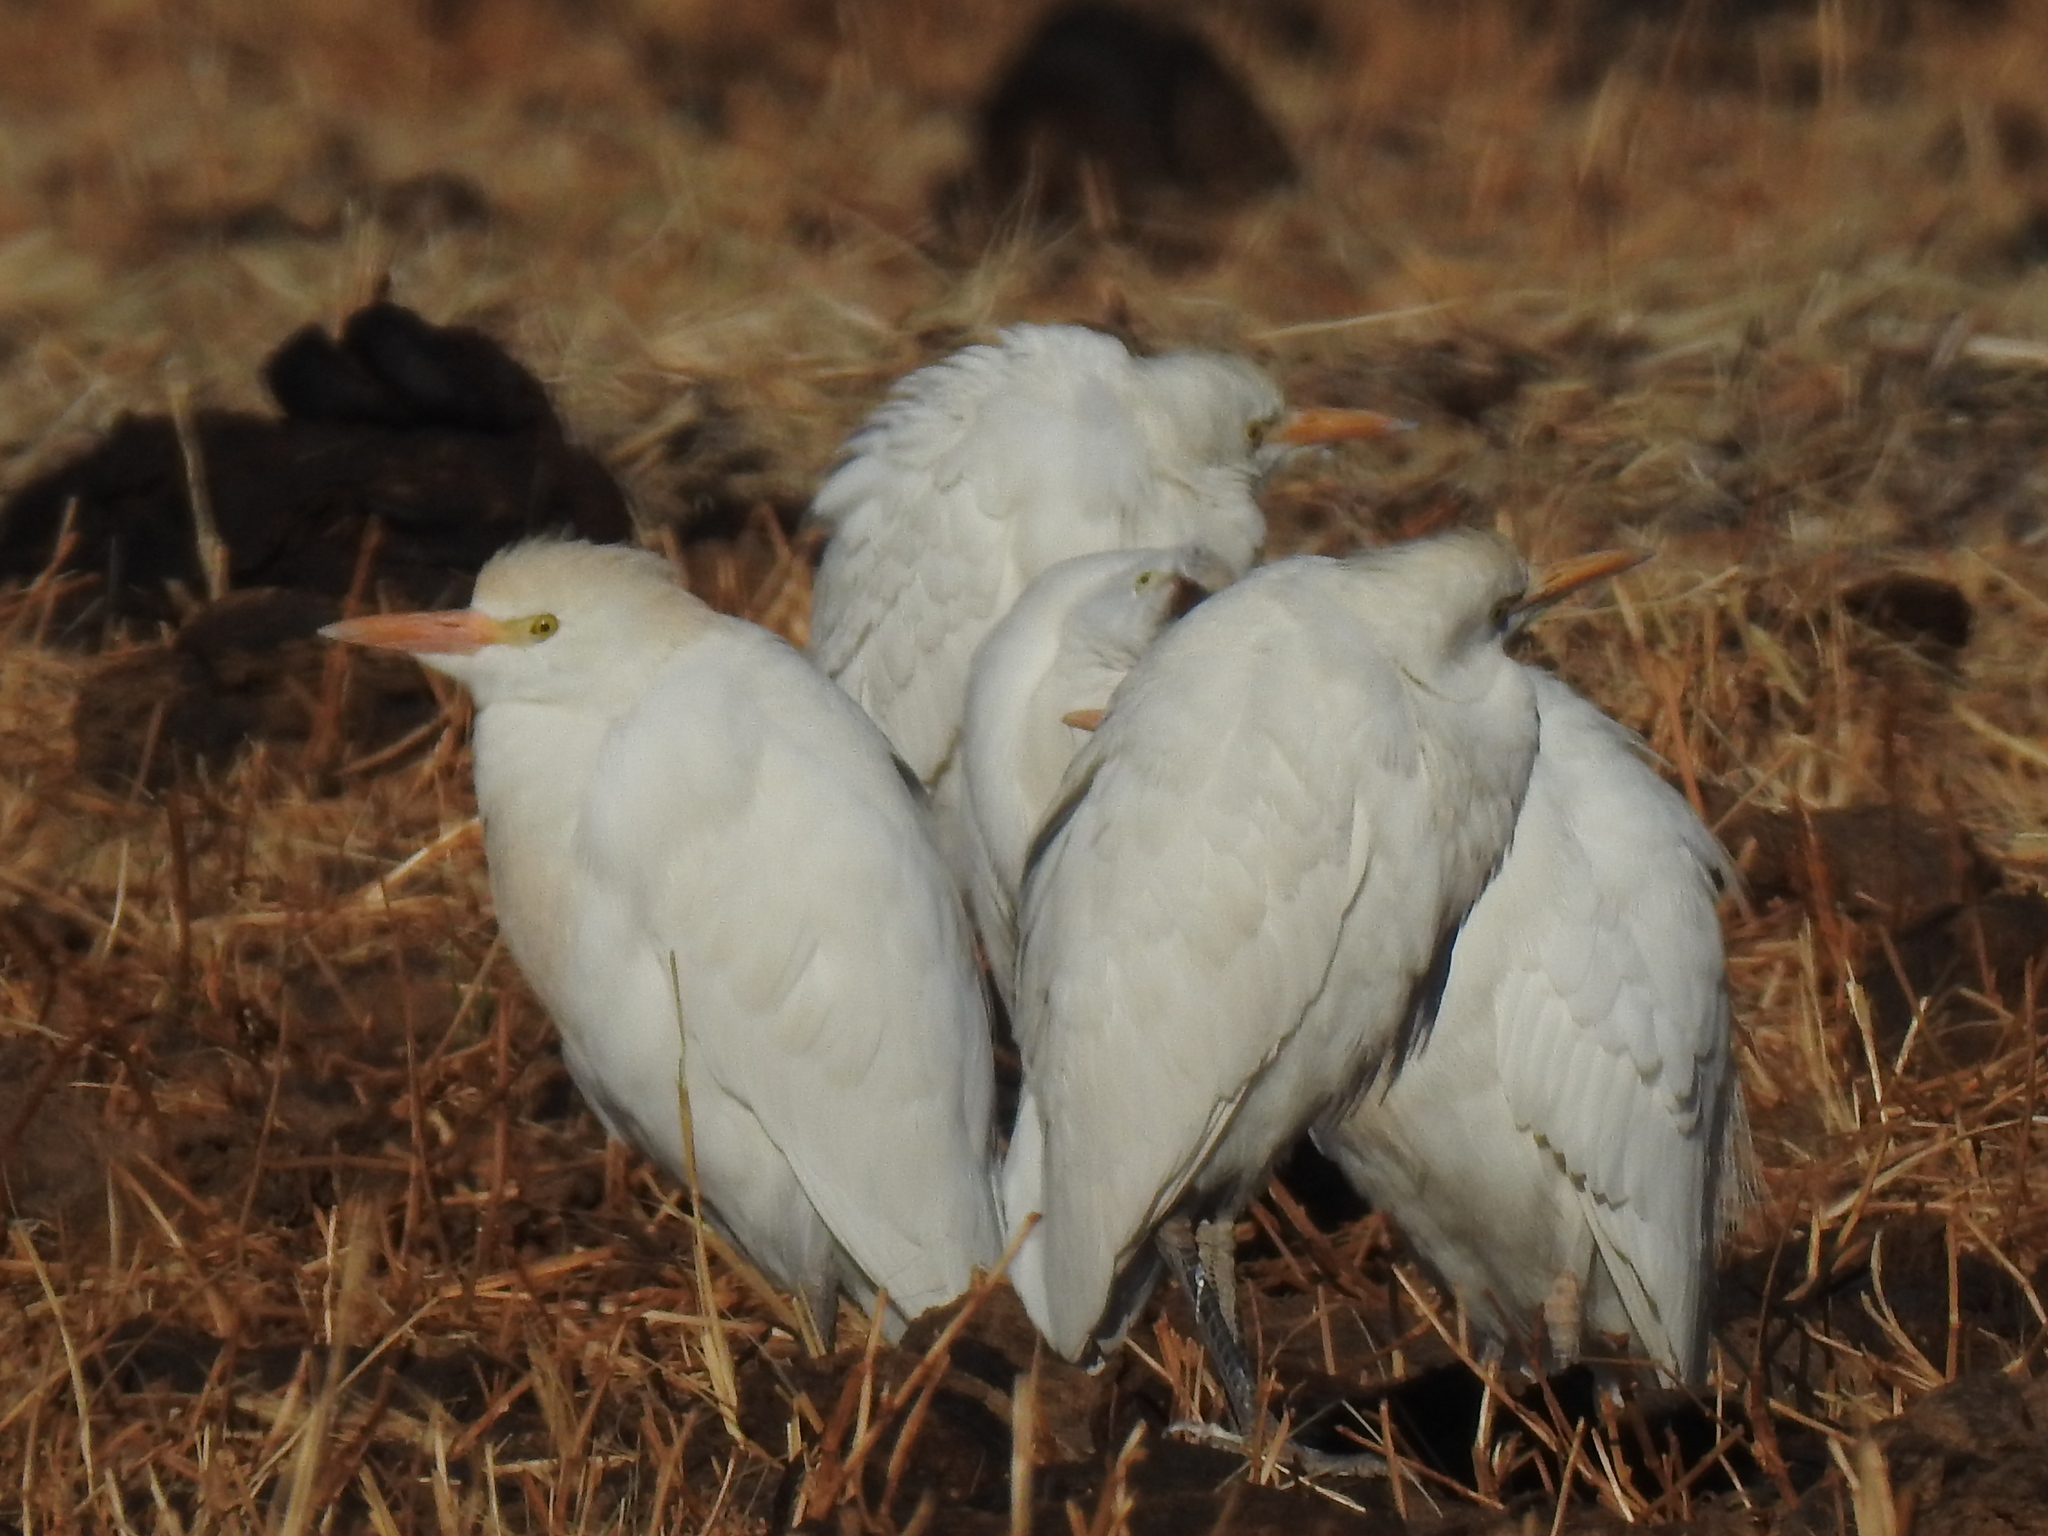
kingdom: Animalia
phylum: Chordata
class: Aves
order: Pelecaniformes
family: Ardeidae
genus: Bubulcus
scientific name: Bubulcus ibis
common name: Cattle egret
